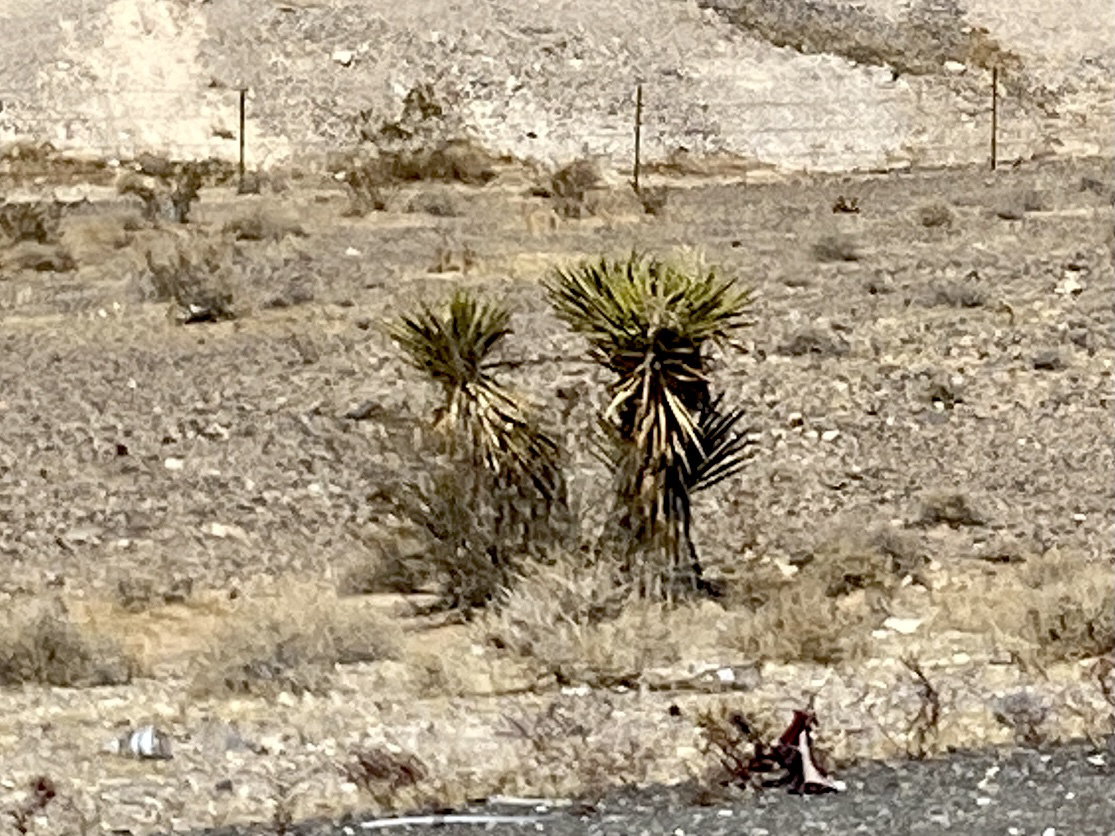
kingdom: Plantae
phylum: Tracheophyta
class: Liliopsida
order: Asparagales
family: Asparagaceae
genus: Yucca
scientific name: Yucca schidigera
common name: Mojave yucca
